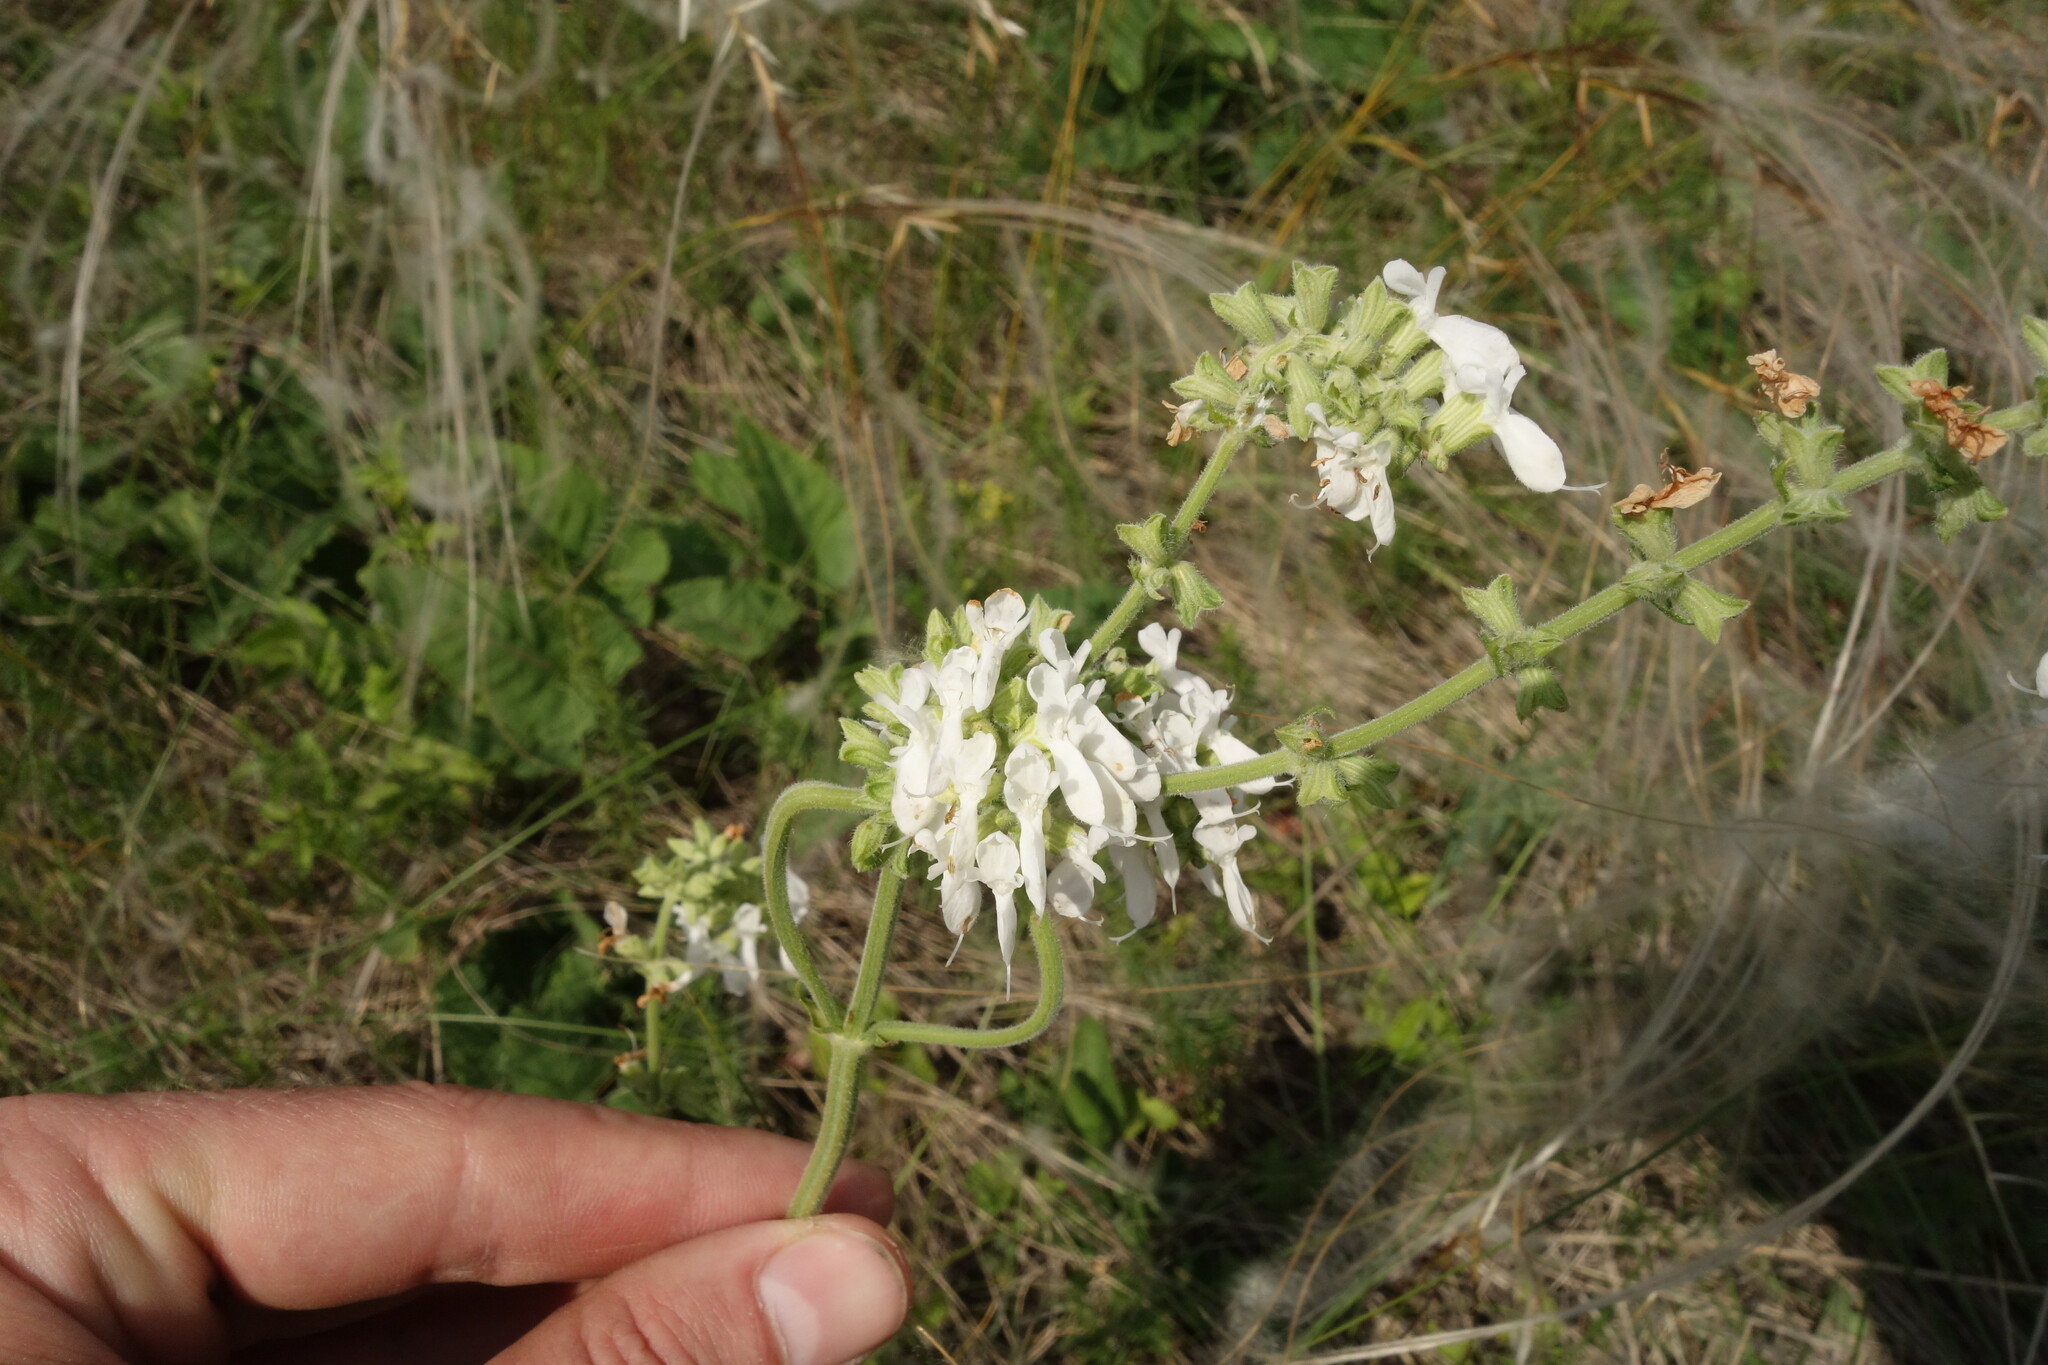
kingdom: Plantae
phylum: Tracheophyta
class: Magnoliopsida
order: Lamiales
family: Lamiaceae
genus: Salvia
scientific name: Salvia nutans
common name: Nodding sage
